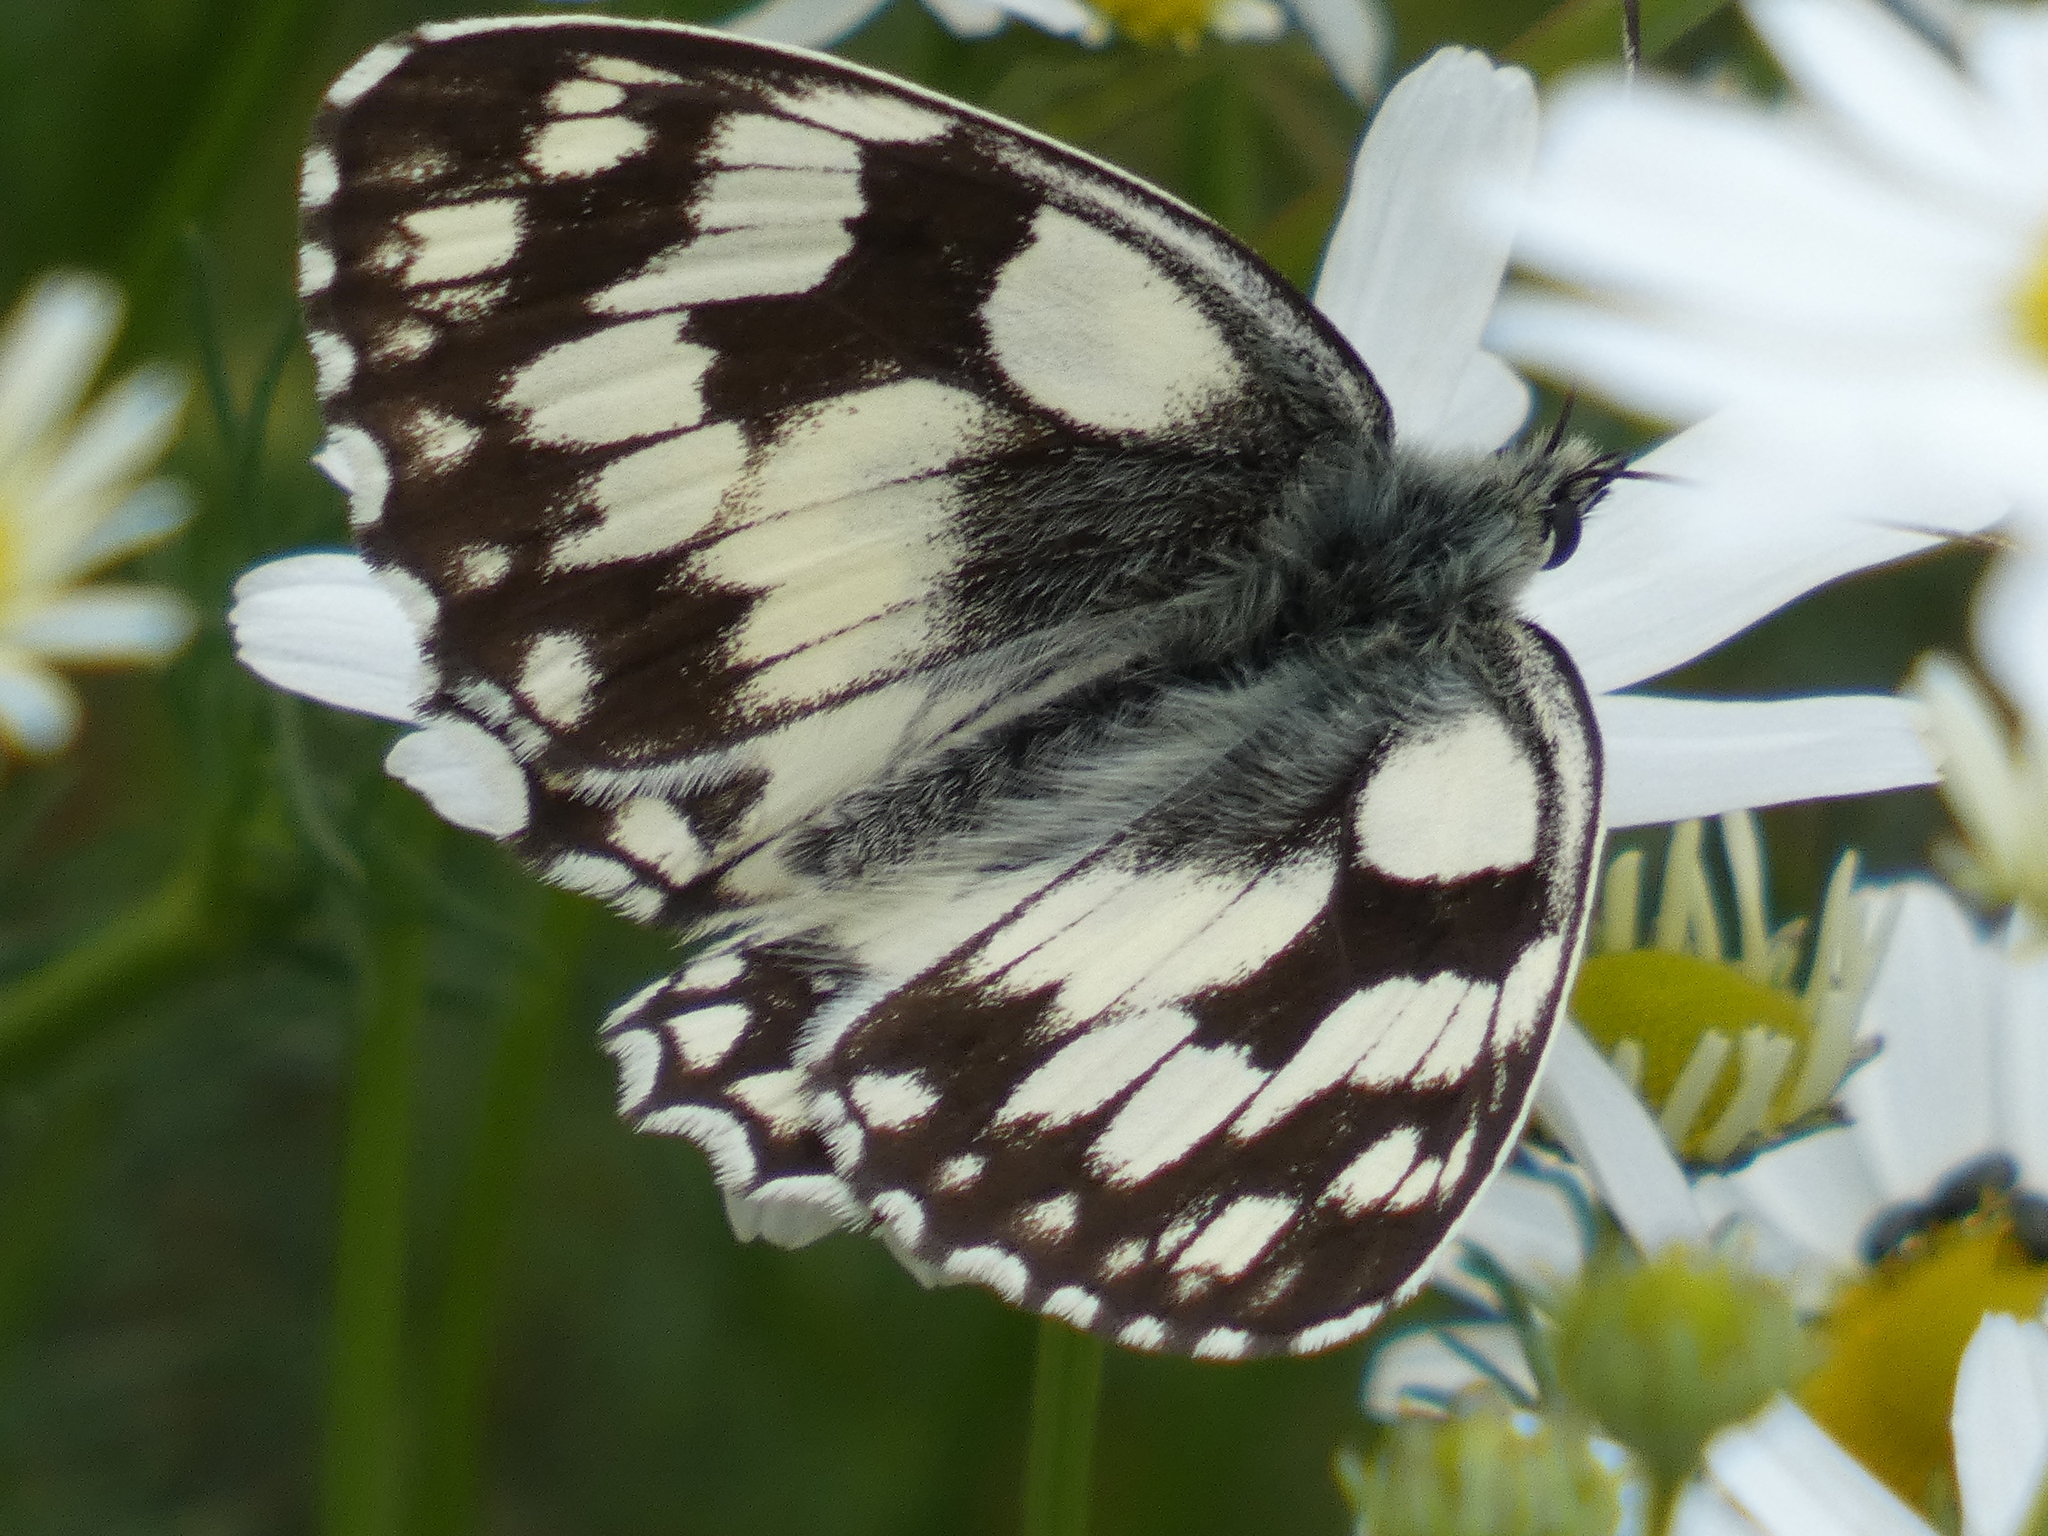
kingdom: Animalia
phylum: Arthropoda
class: Insecta
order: Lepidoptera
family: Nymphalidae
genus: Melanargia
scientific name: Melanargia galathea
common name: Marbled white
